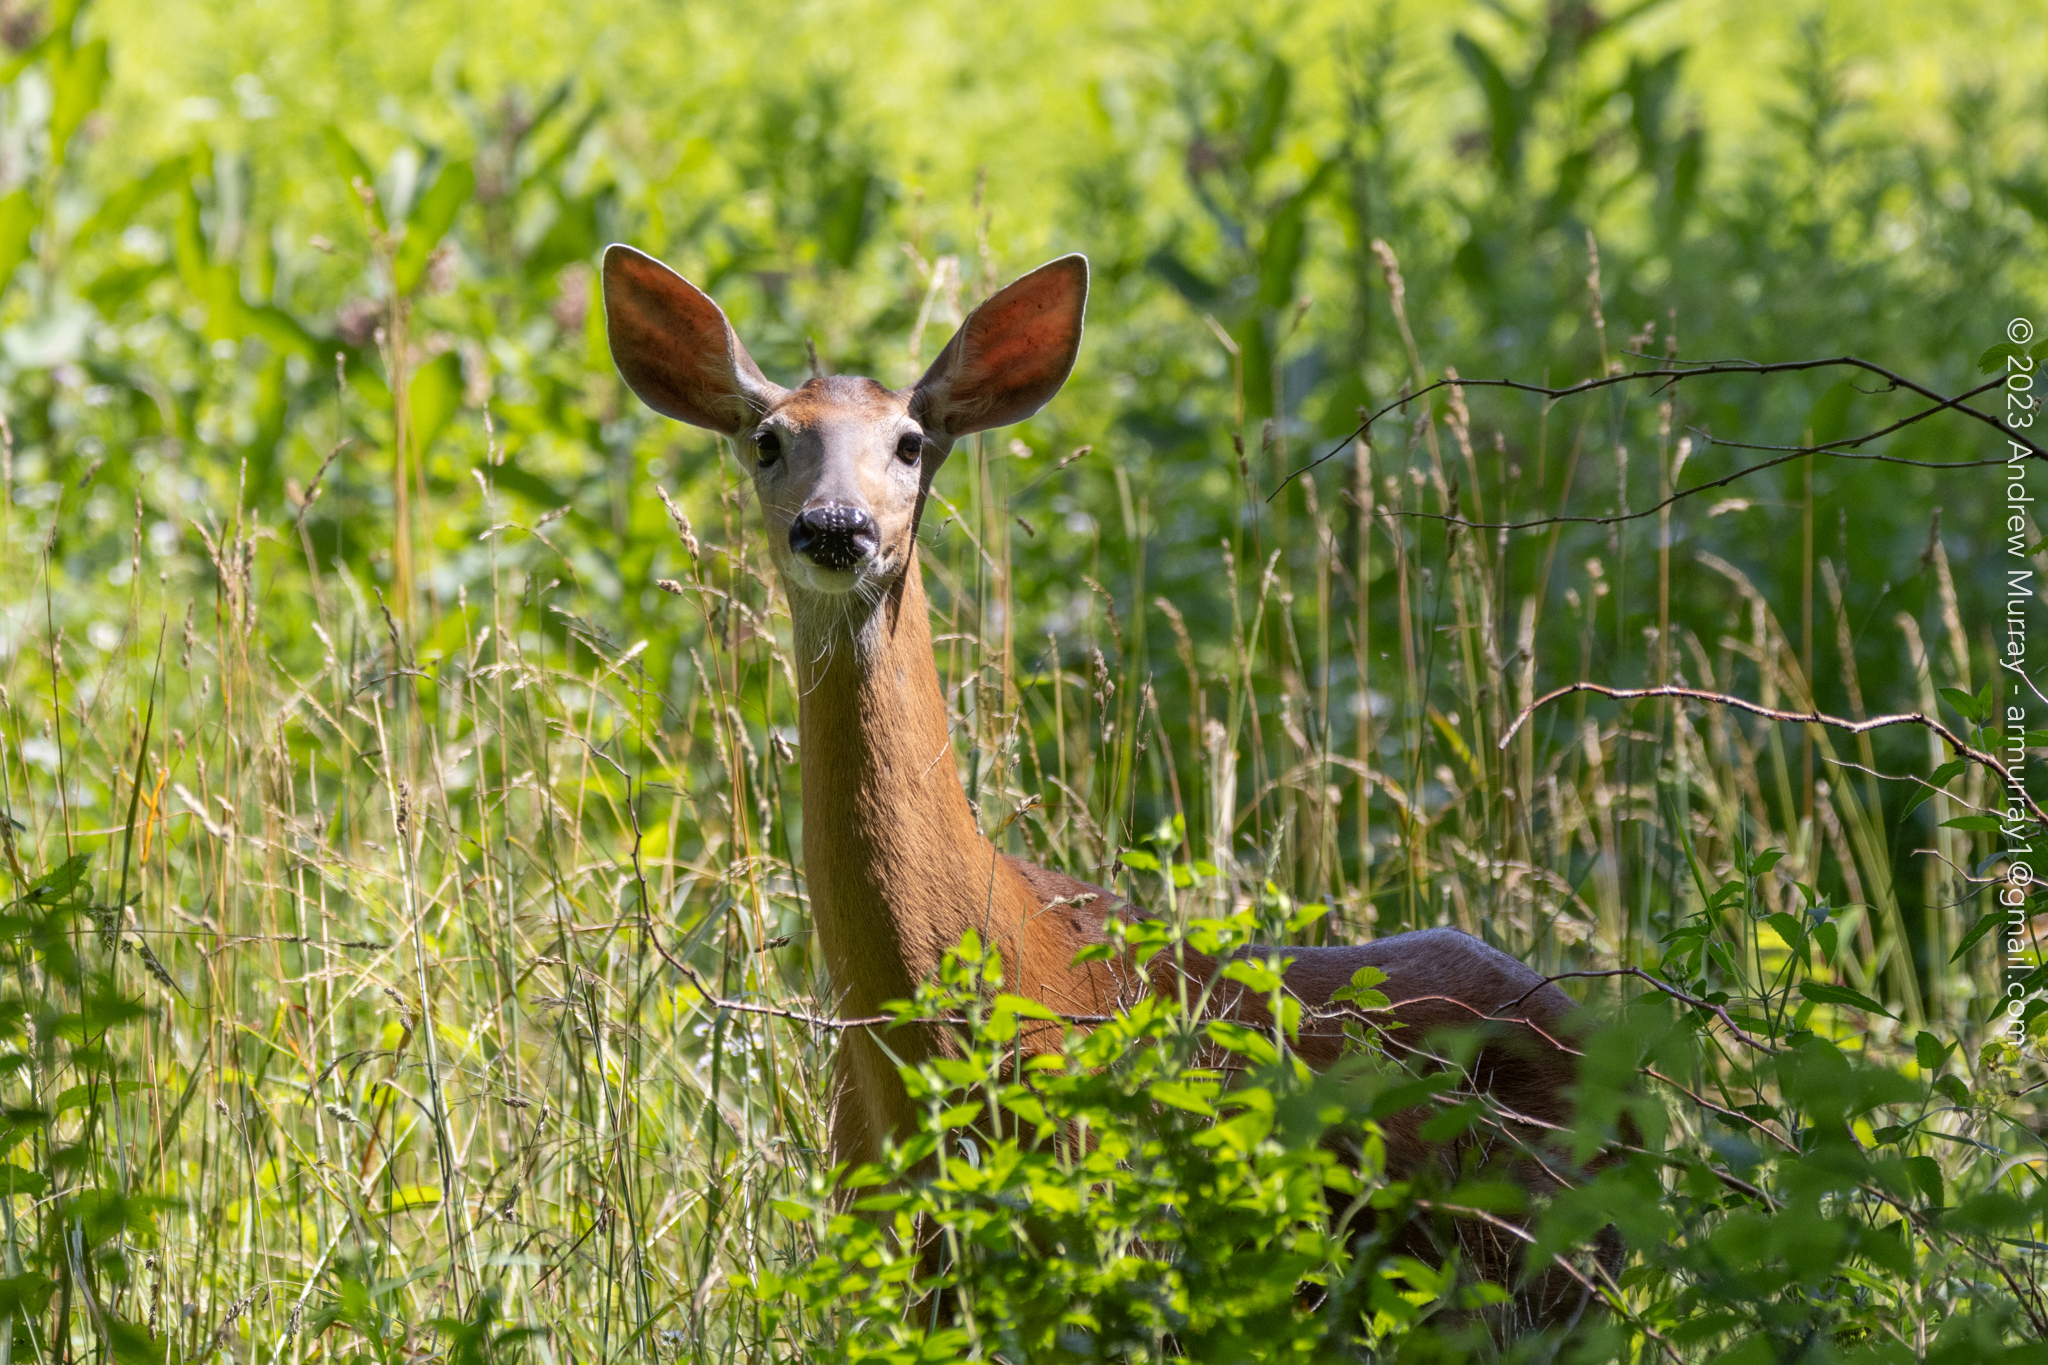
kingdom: Animalia
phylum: Chordata
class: Mammalia
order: Artiodactyla
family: Cervidae
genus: Odocoileus
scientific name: Odocoileus virginianus
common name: White-tailed deer
